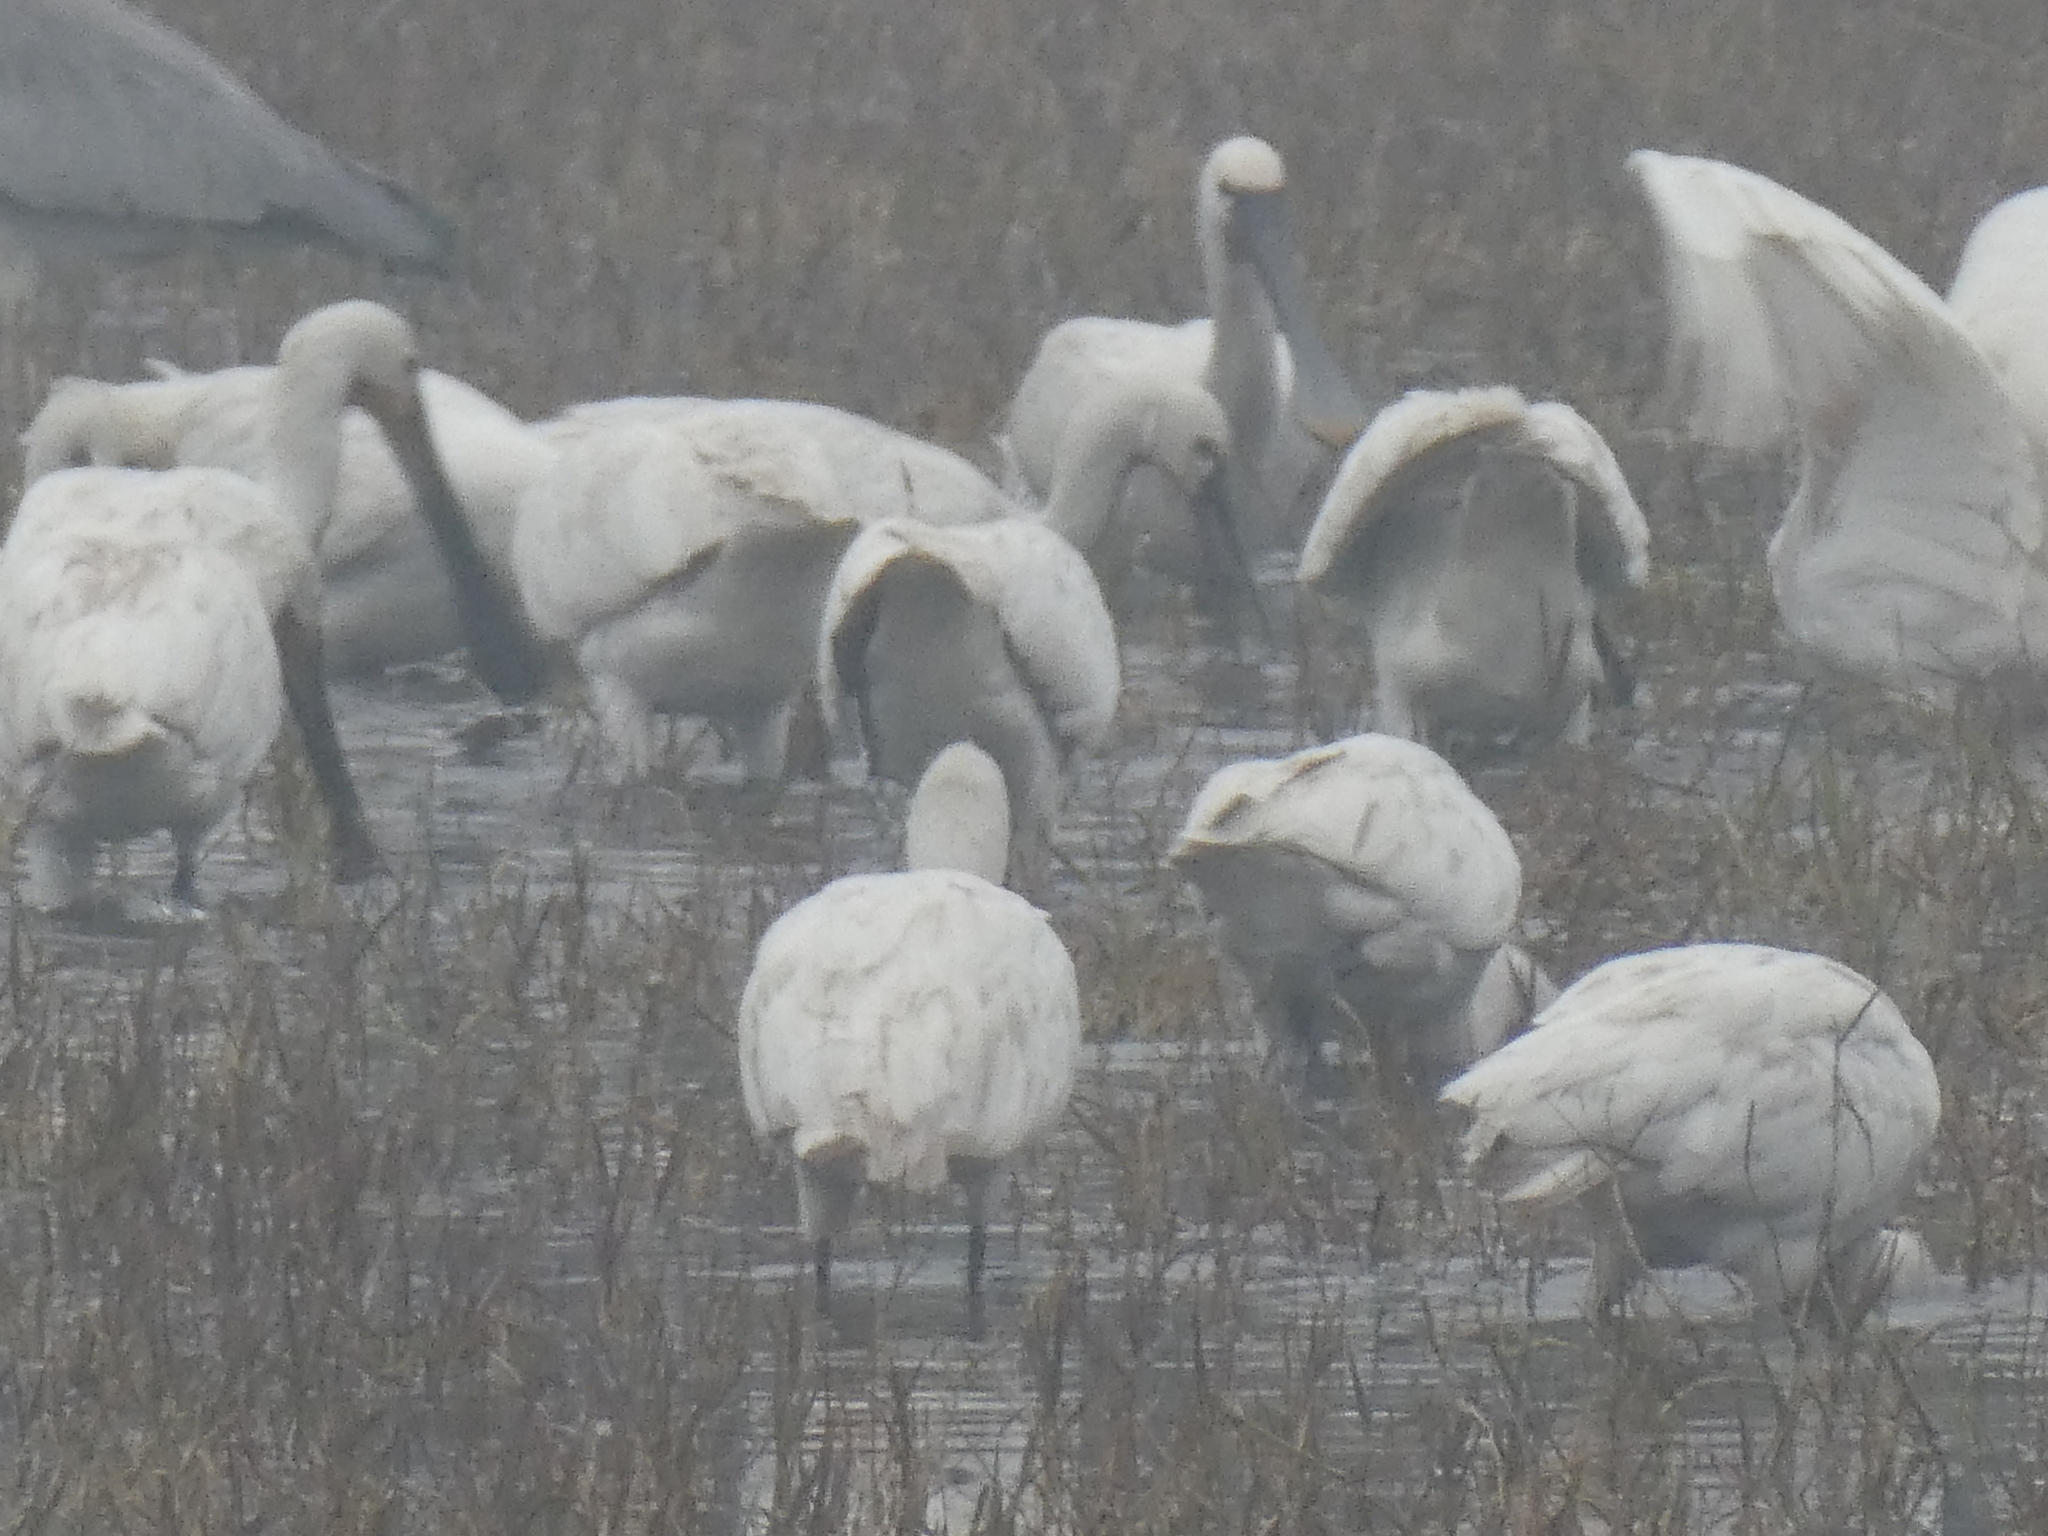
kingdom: Animalia
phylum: Chordata
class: Aves
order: Pelecaniformes
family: Threskiornithidae
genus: Platalea
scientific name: Platalea leucorodia
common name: Eurasian spoonbill
